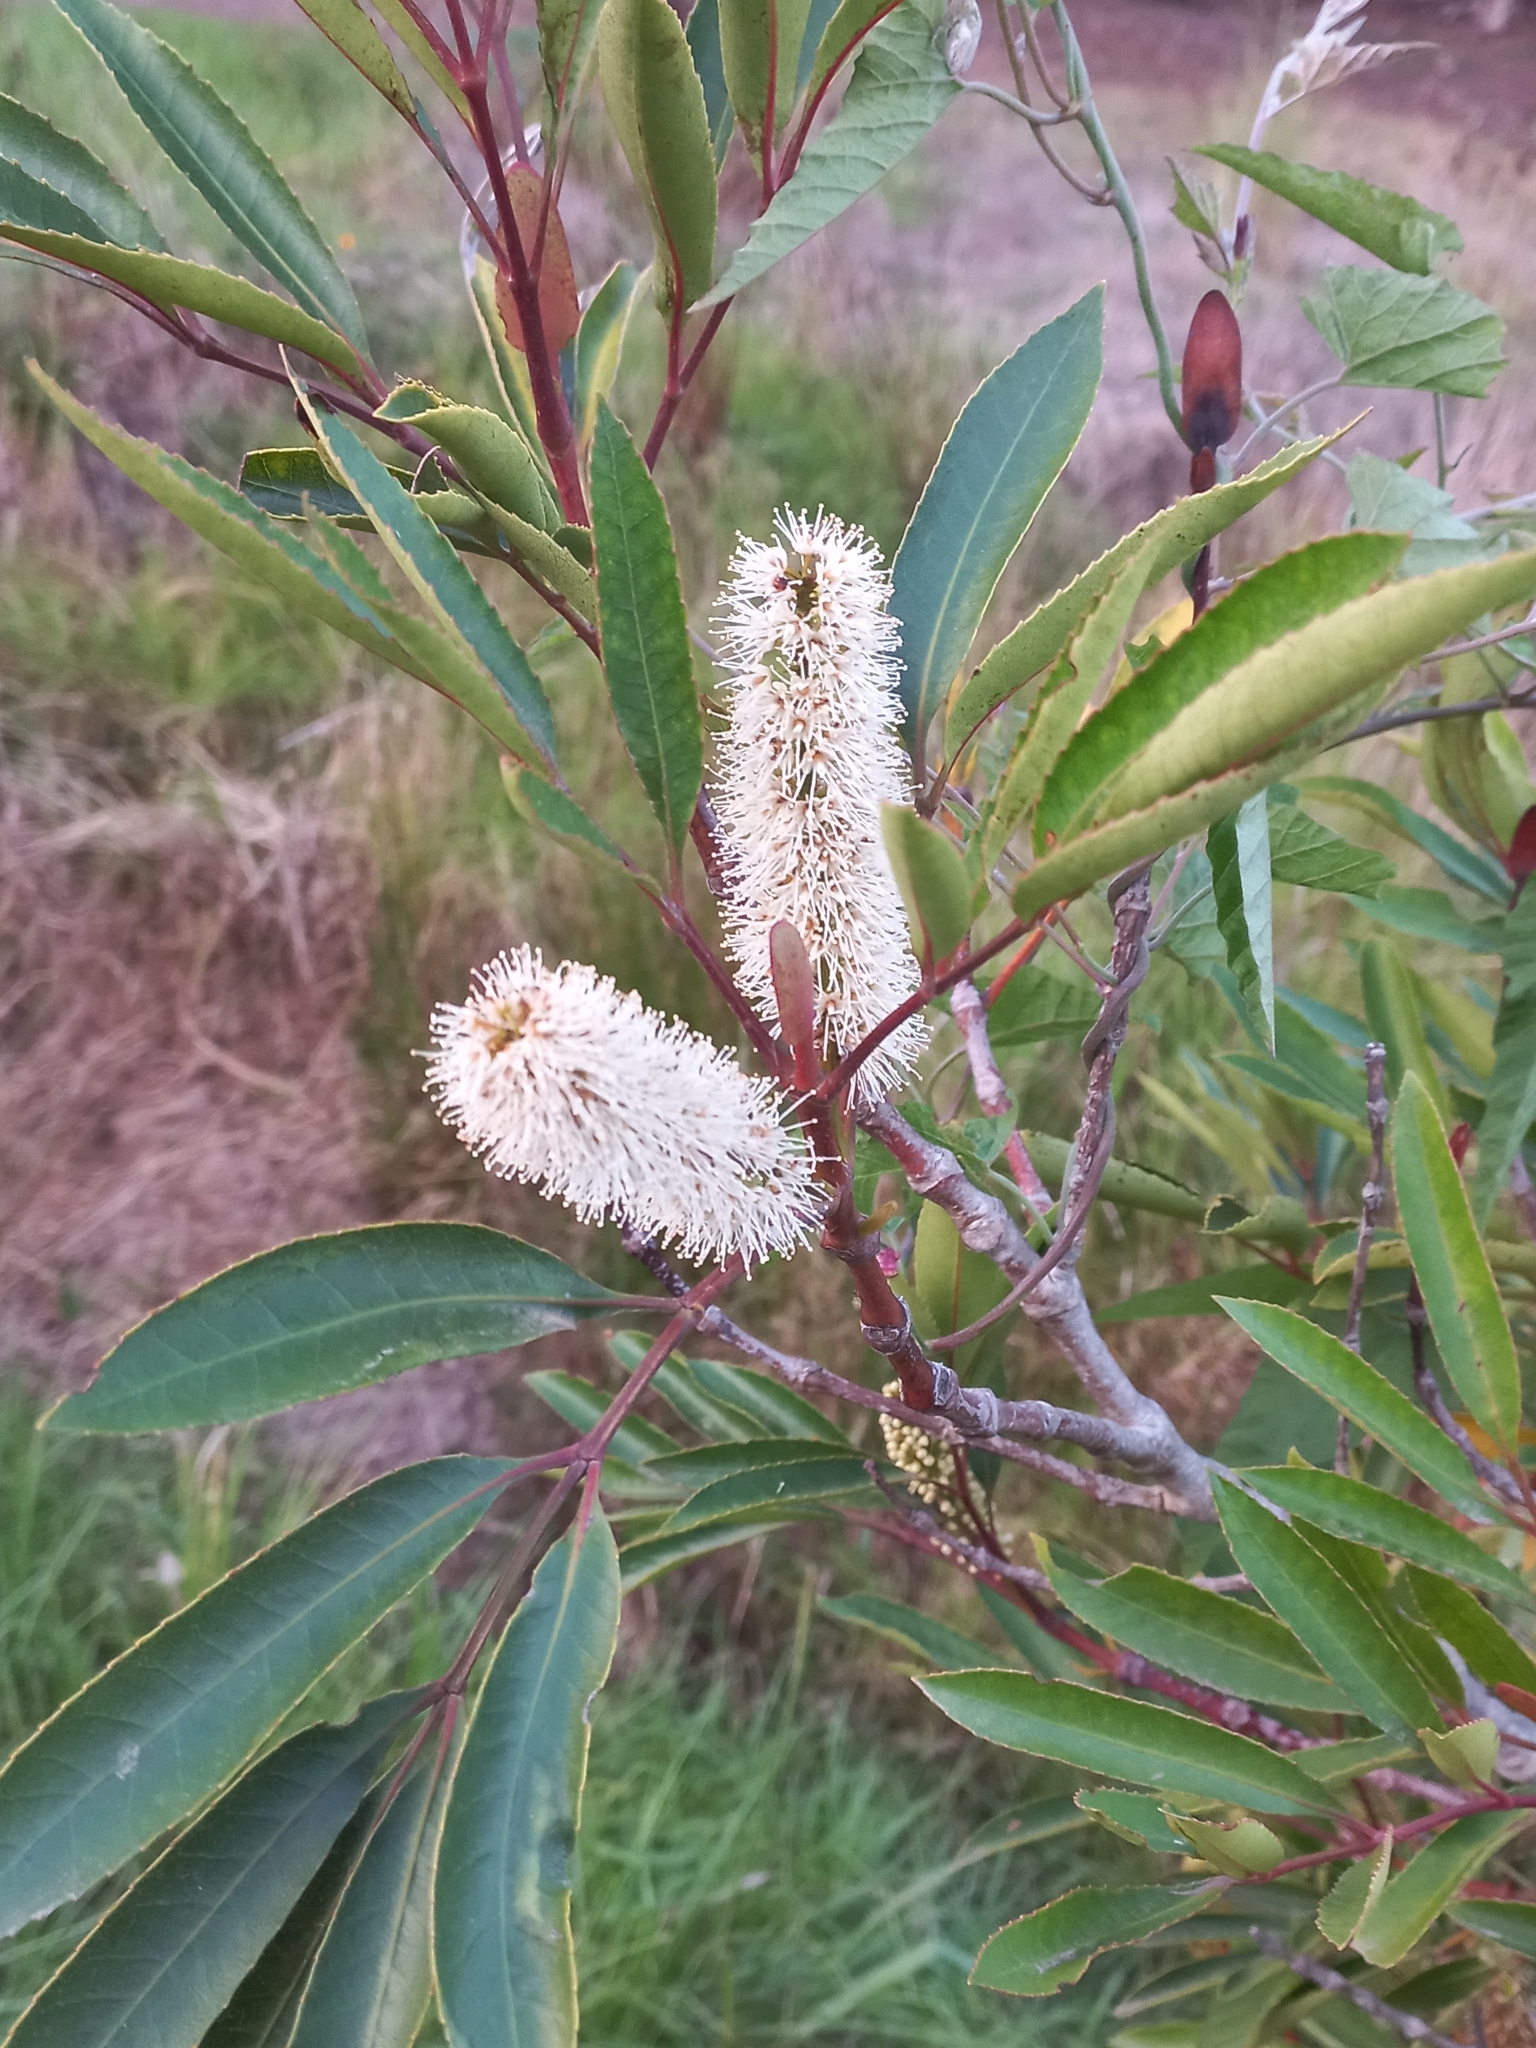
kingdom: Plantae
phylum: Tracheophyta
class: Magnoliopsida
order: Oxalidales
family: Cunoniaceae
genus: Cunonia
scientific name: Cunonia capensis
